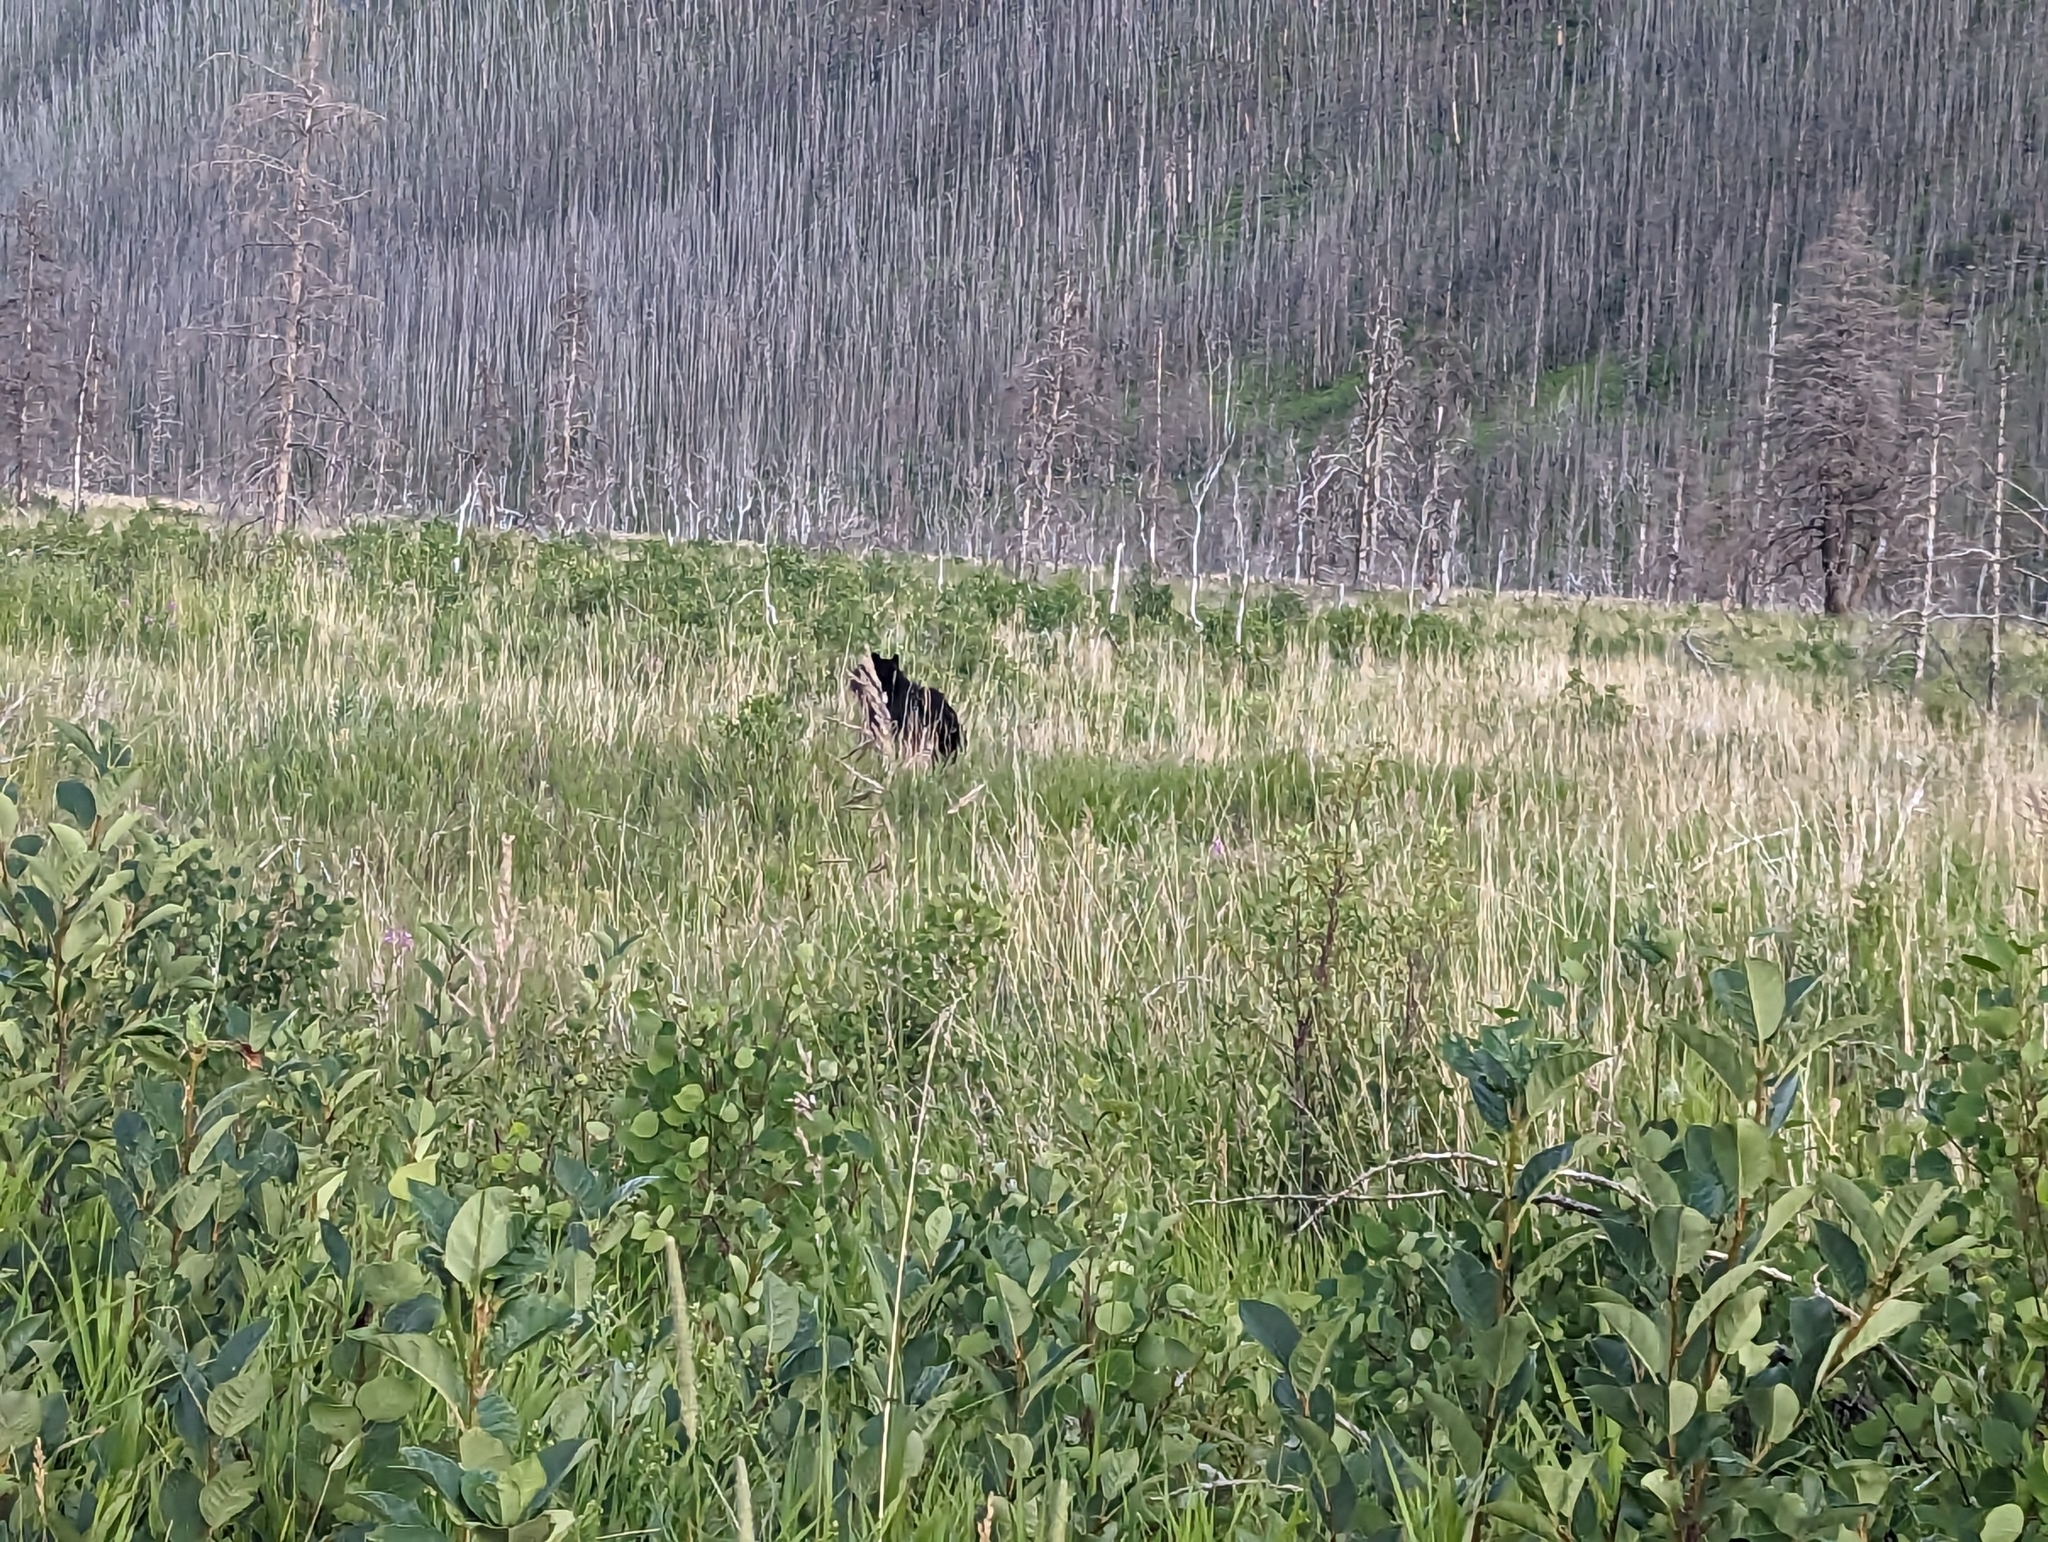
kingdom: Animalia
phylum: Chordata
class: Mammalia
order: Carnivora
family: Ursidae
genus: Ursus
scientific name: Ursus americanus
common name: American black bear
